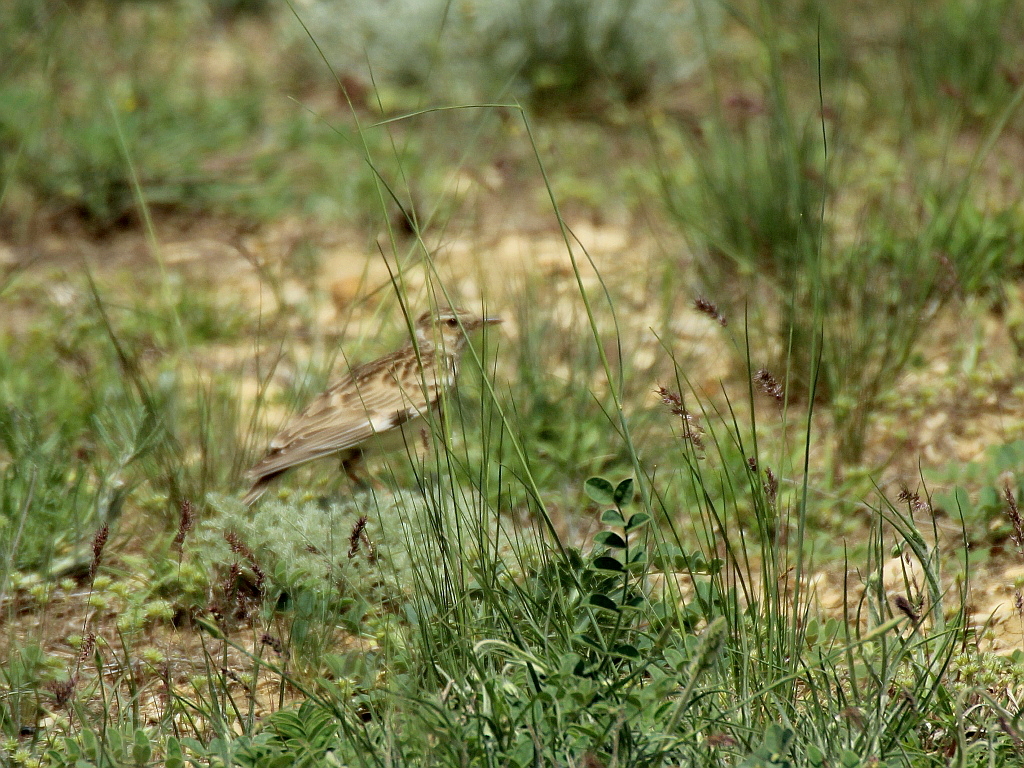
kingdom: Animalia
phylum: Chordata
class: Aves
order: Passeriformes
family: Alaudidae
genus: Lullula
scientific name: Lullula arborea
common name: Woodlark
